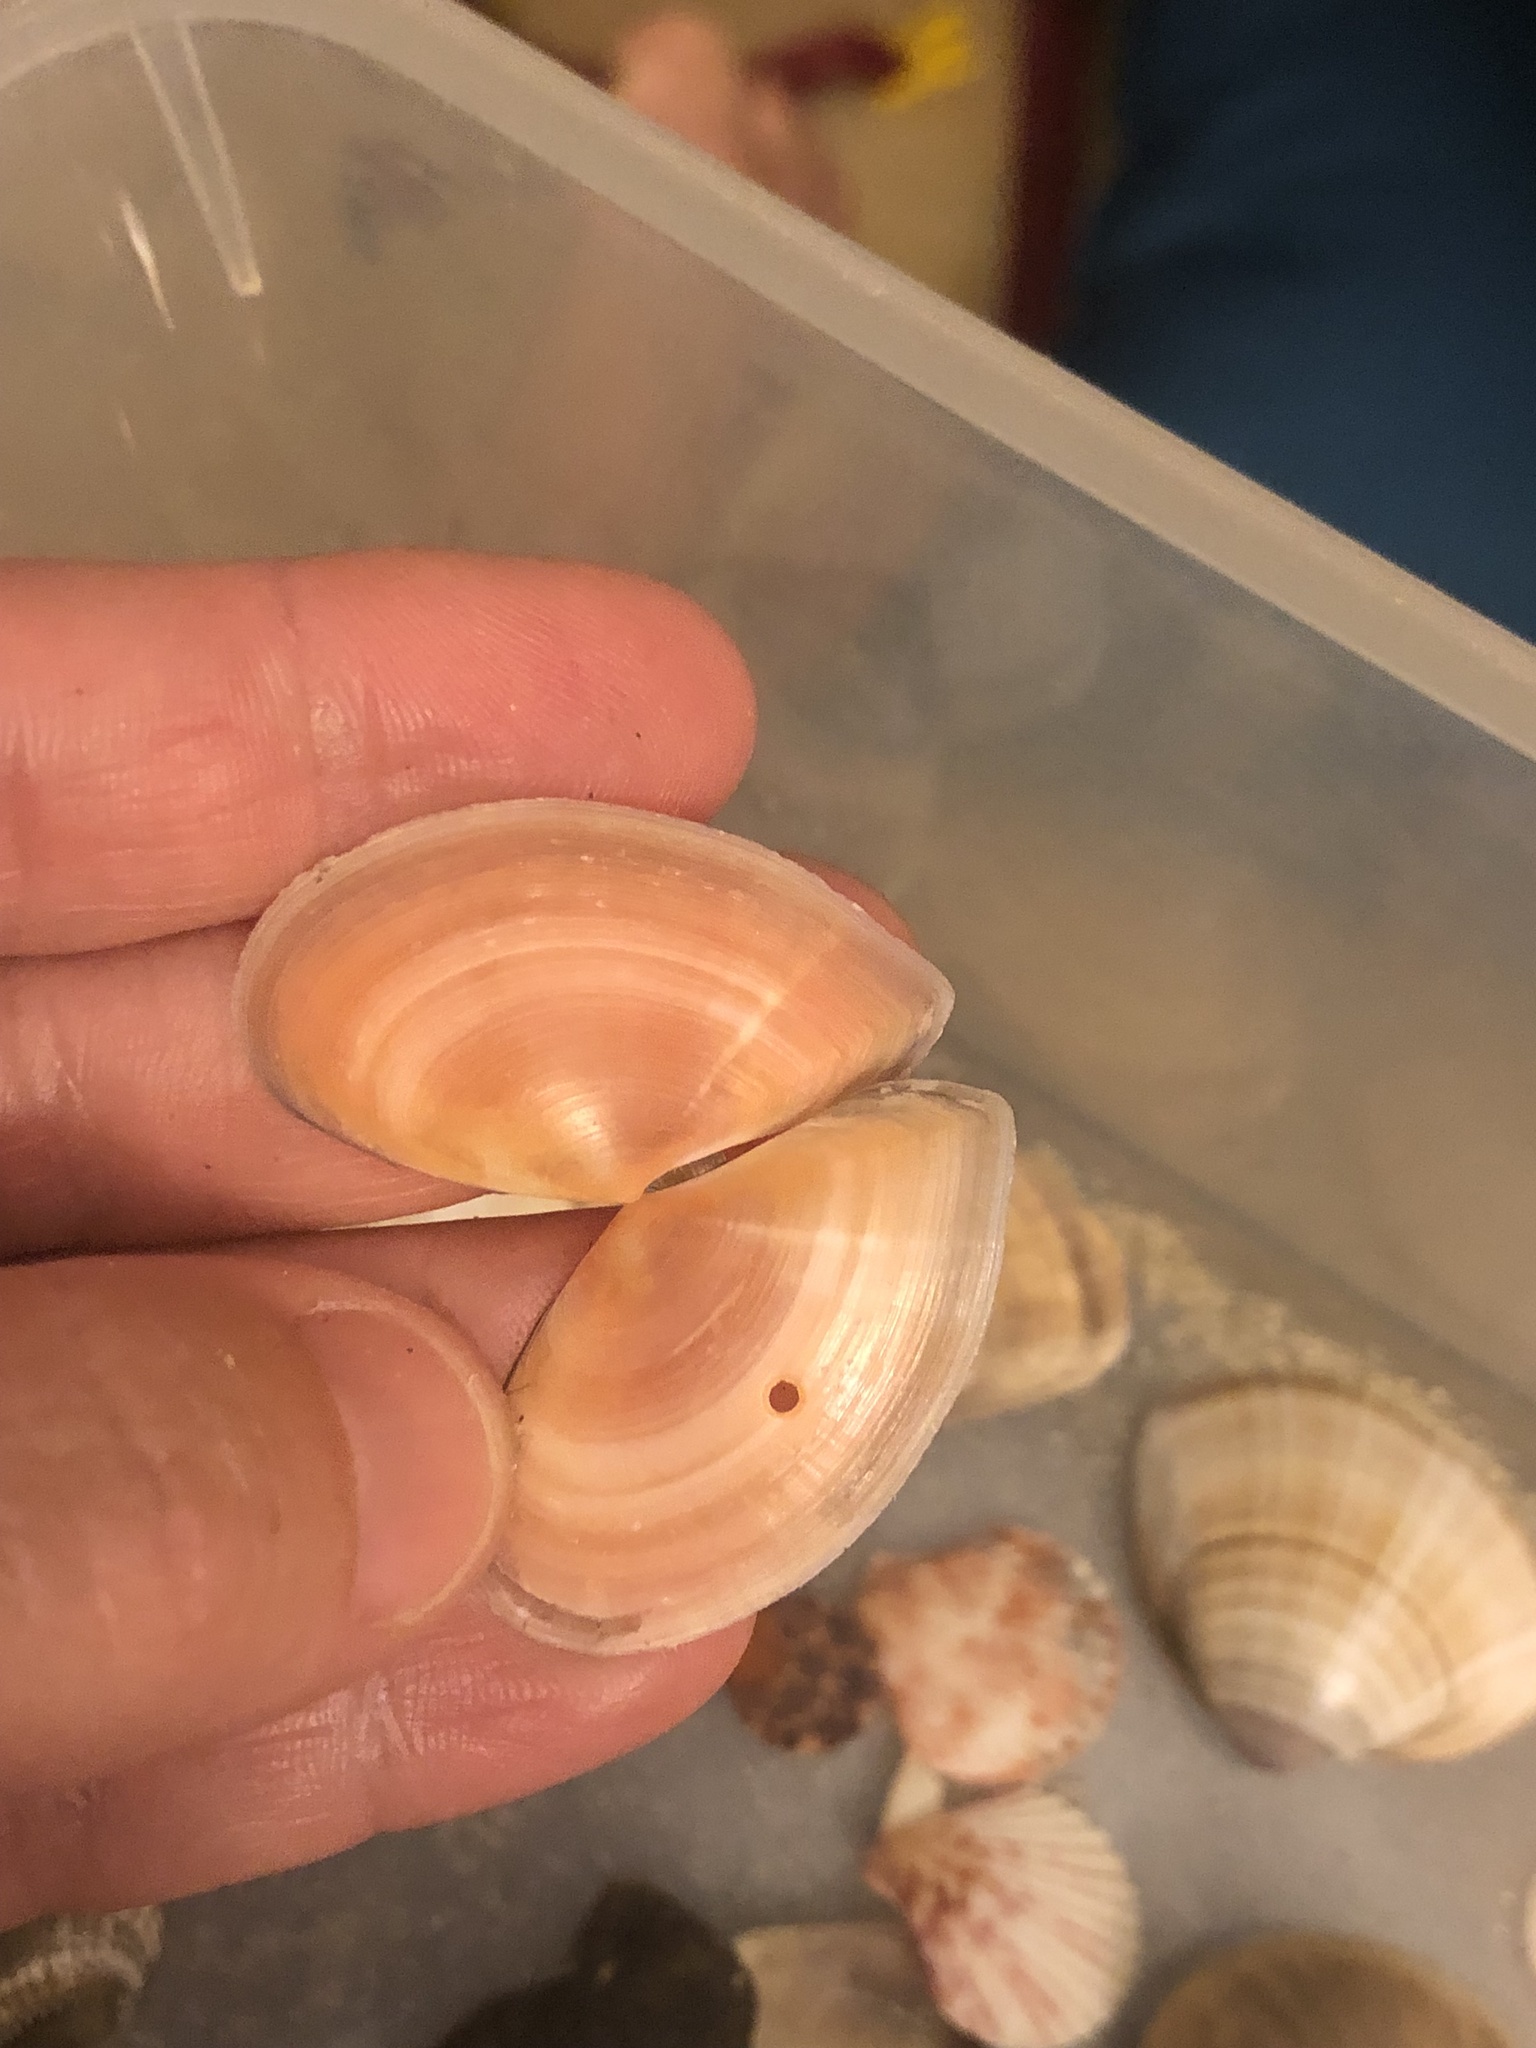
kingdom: Animalia
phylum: Mollusca
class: Bivalvia
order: Cardiida
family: Tellinidae
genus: Bosemprella
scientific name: Bosemprella incarnata
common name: Red tellin
